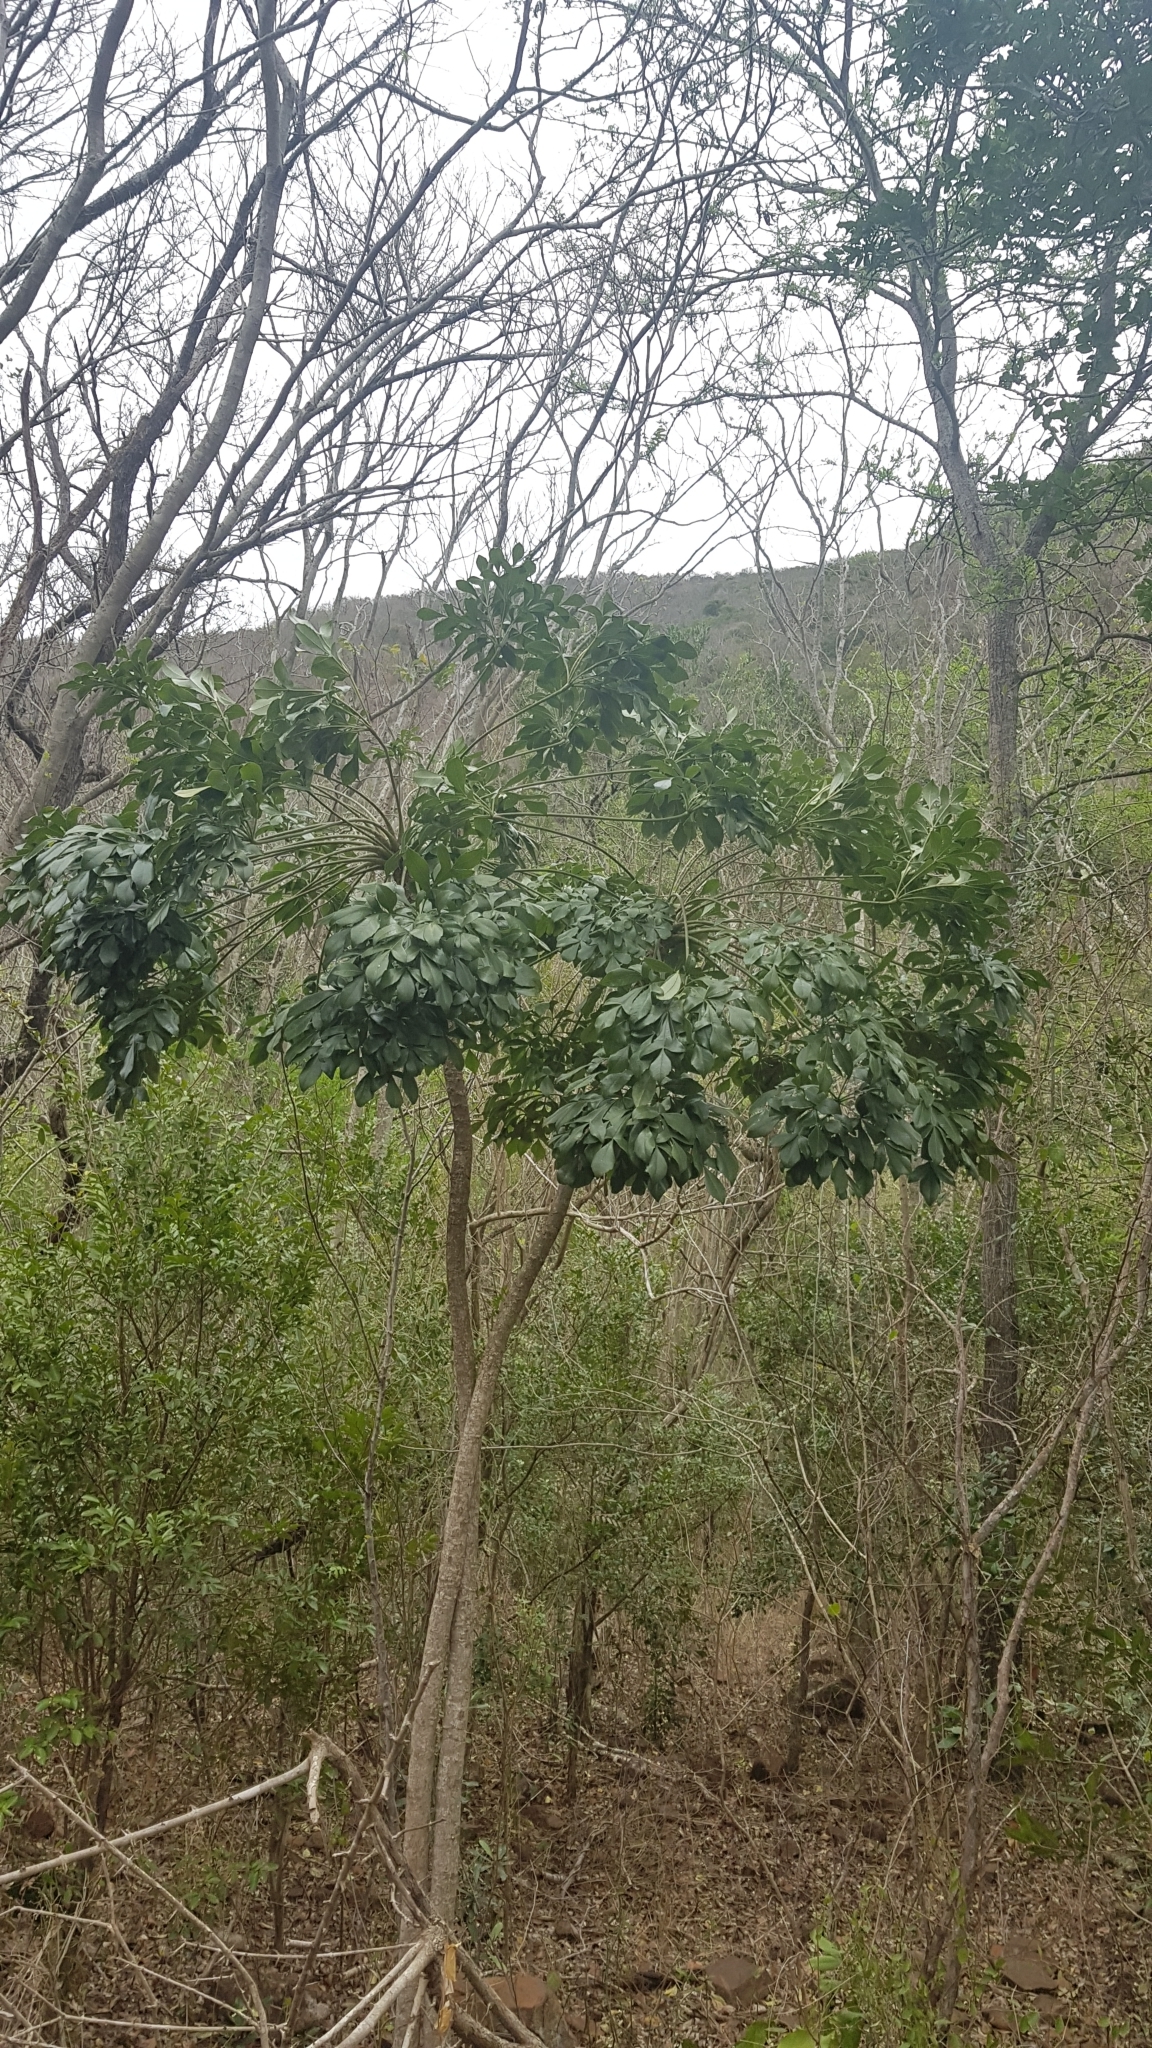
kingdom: Plantae
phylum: Tracheophyta
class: Magnoliopsida
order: Apiales
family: Araliaceae
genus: Cussonia
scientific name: Cussonia zuluensis
